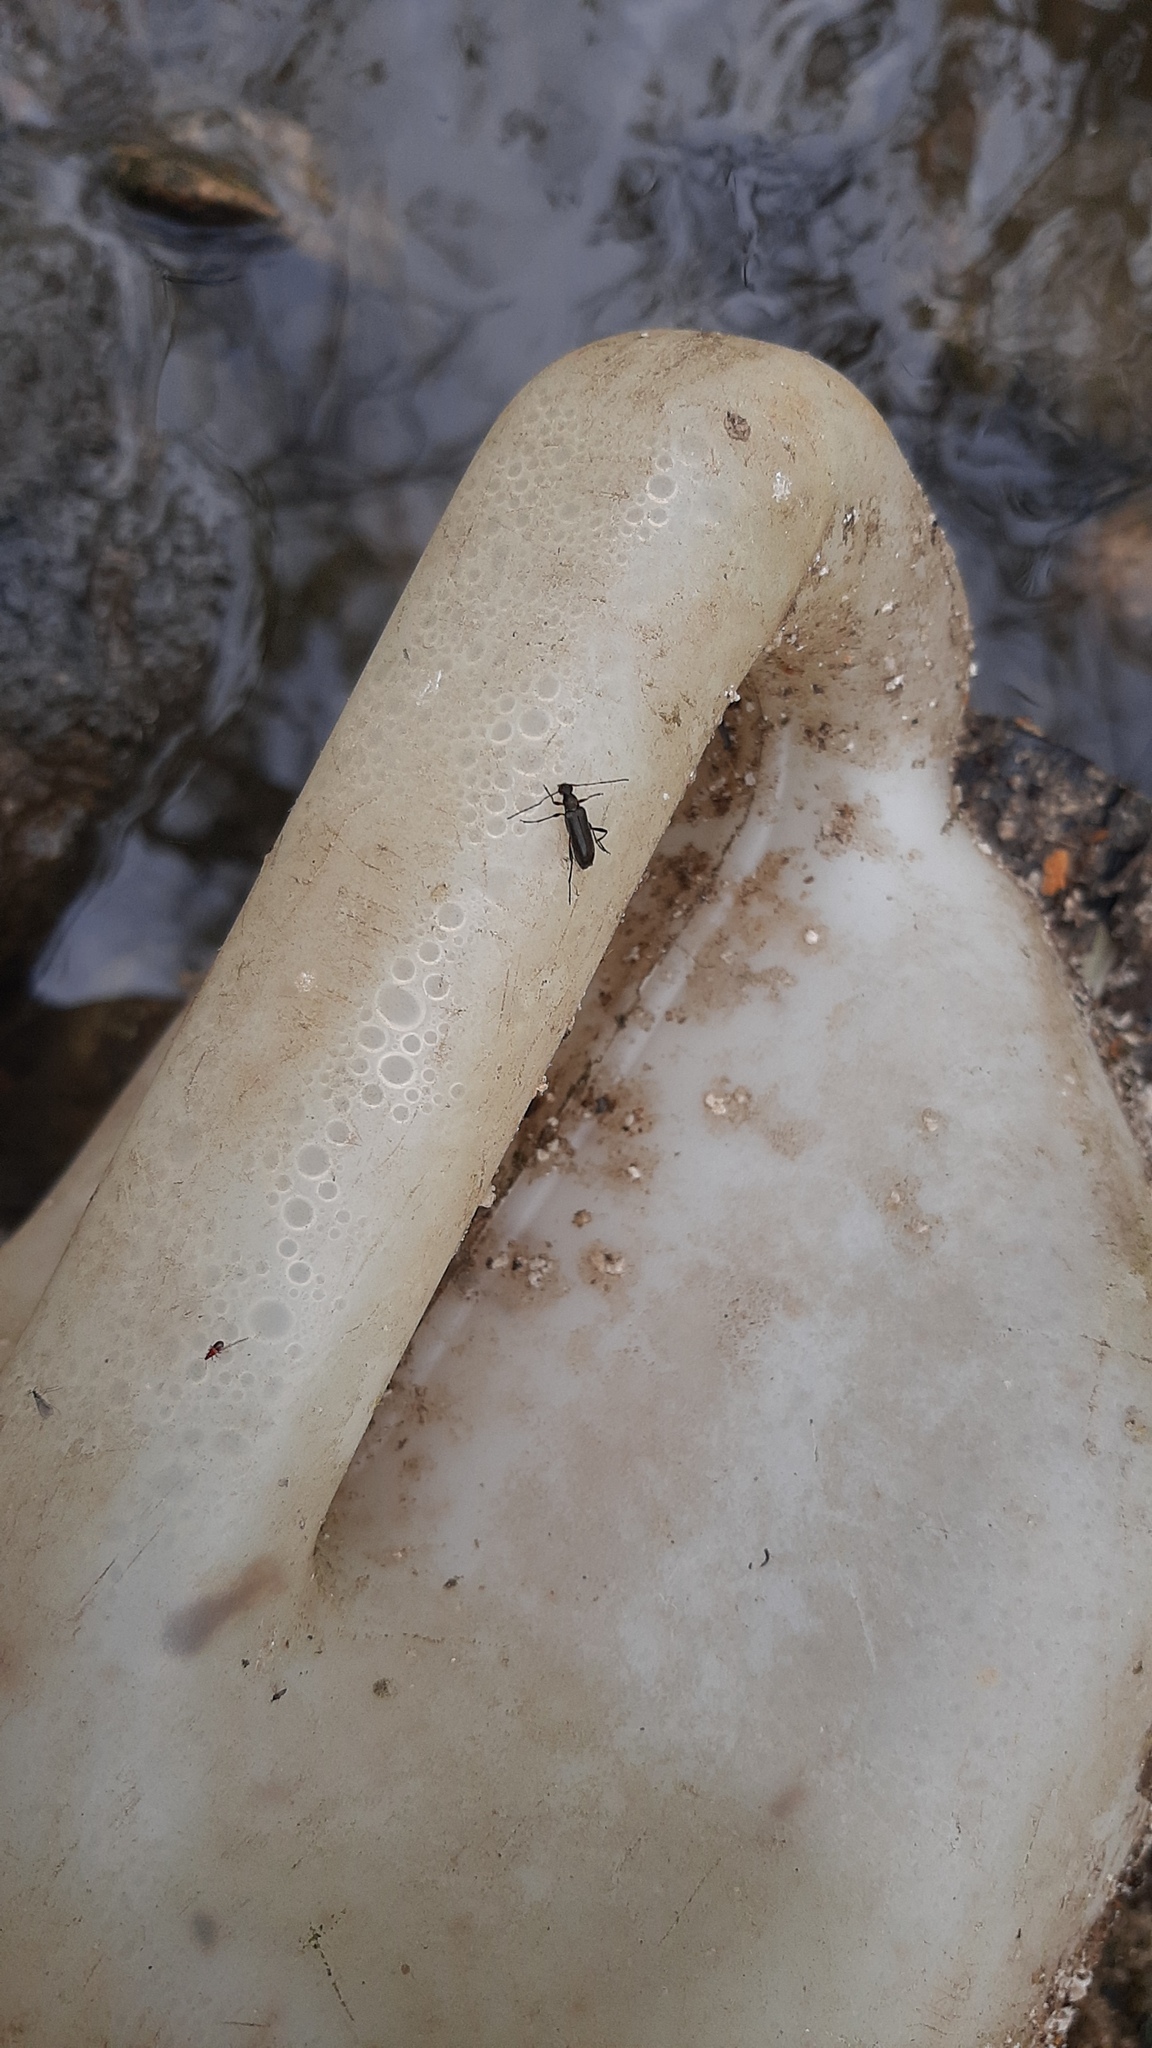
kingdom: Animalia
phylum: Arthropoda
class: Insecta
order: Coleoptera
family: Cerambycidae
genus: Grammoptera
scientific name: Grammoptera ruficornis
